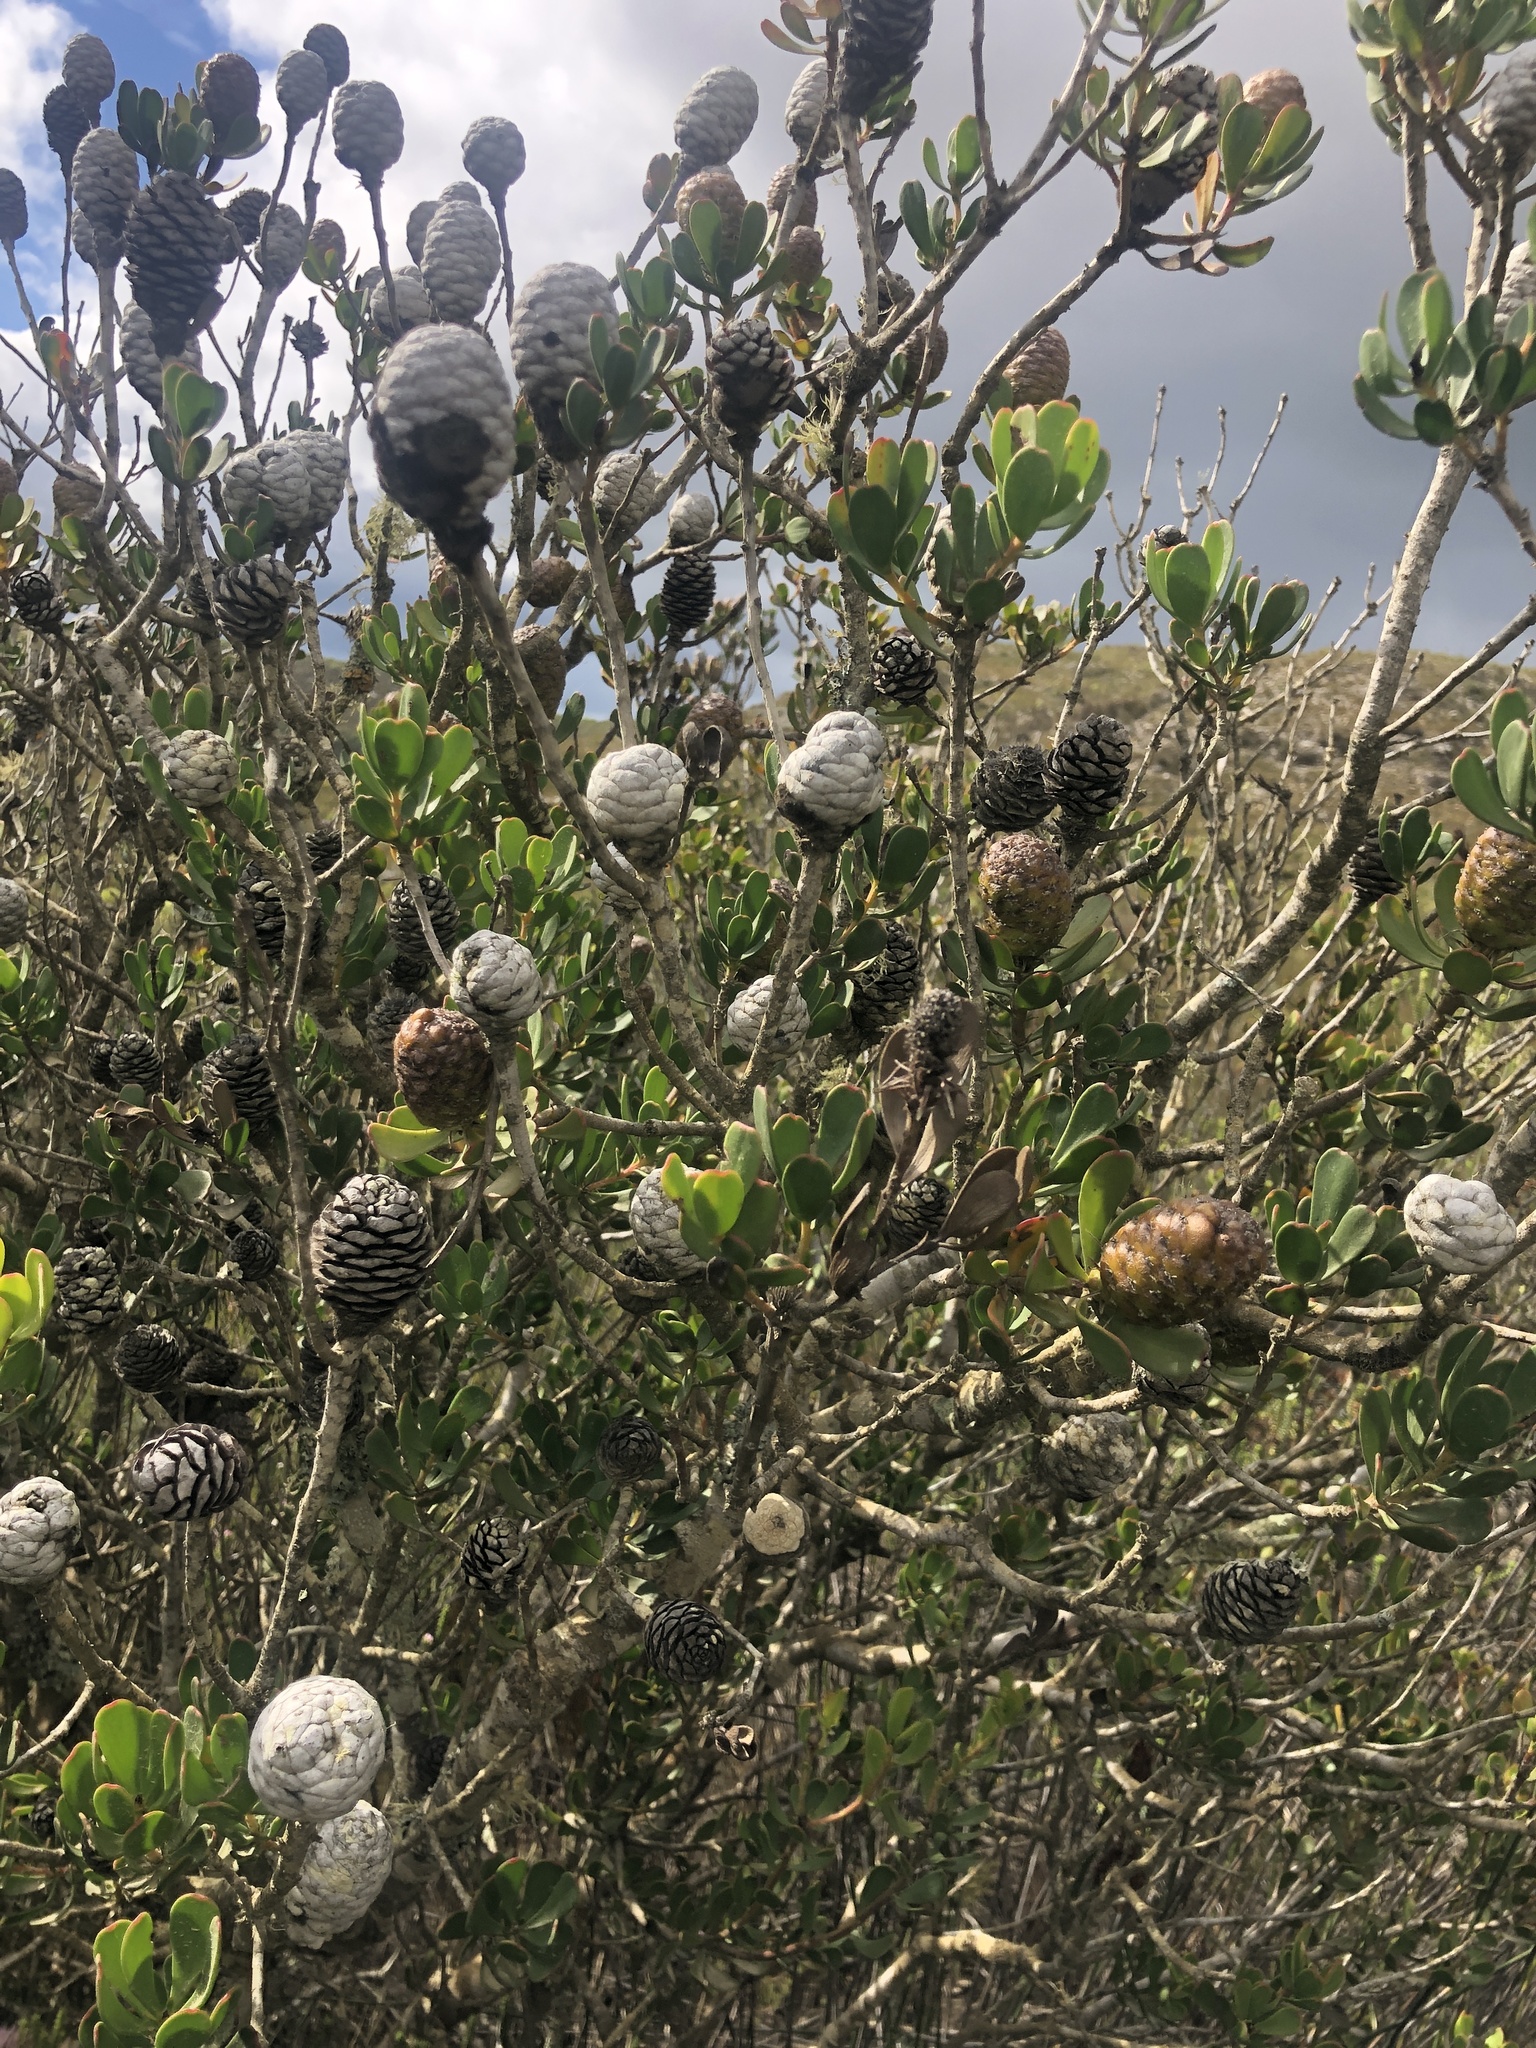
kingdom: Plantae
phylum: Tracheophyta
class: Magnoliopsida
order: Proteales
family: Proteaceae
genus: Leucadendron
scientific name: Leucadendron muirii
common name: Silver-ball conebush
